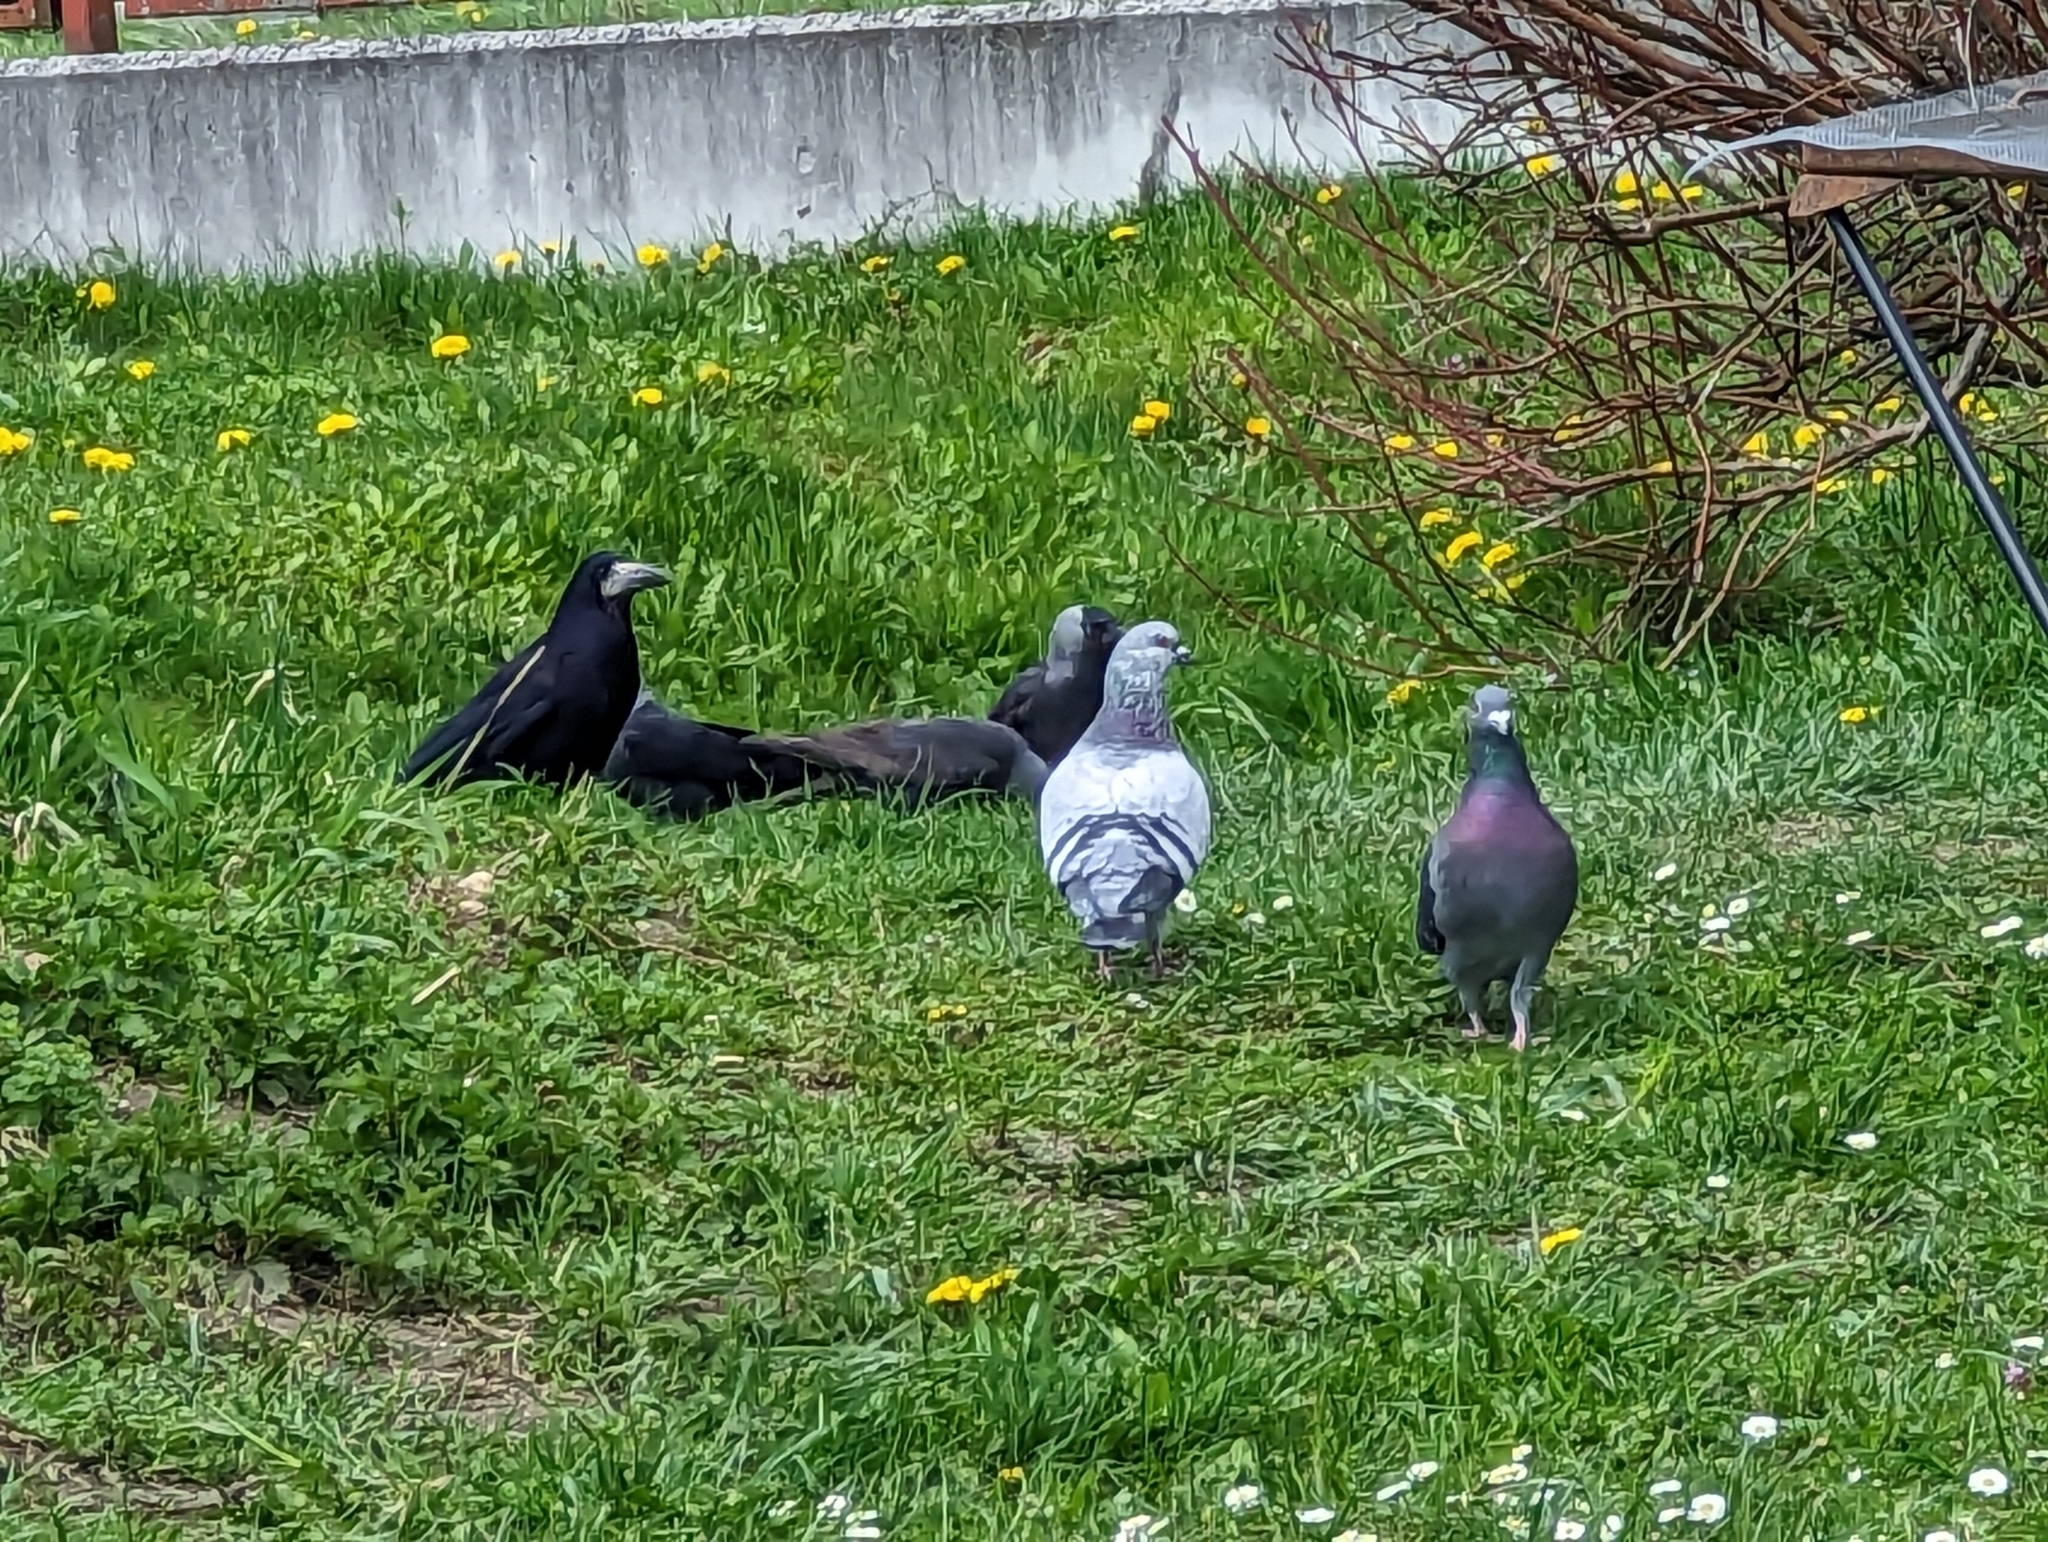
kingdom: Animalia
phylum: Chordata
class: Aves
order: Passeriformes
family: Corvidae
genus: Coloeus
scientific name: Coloeus monedula
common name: Western jackdaw
